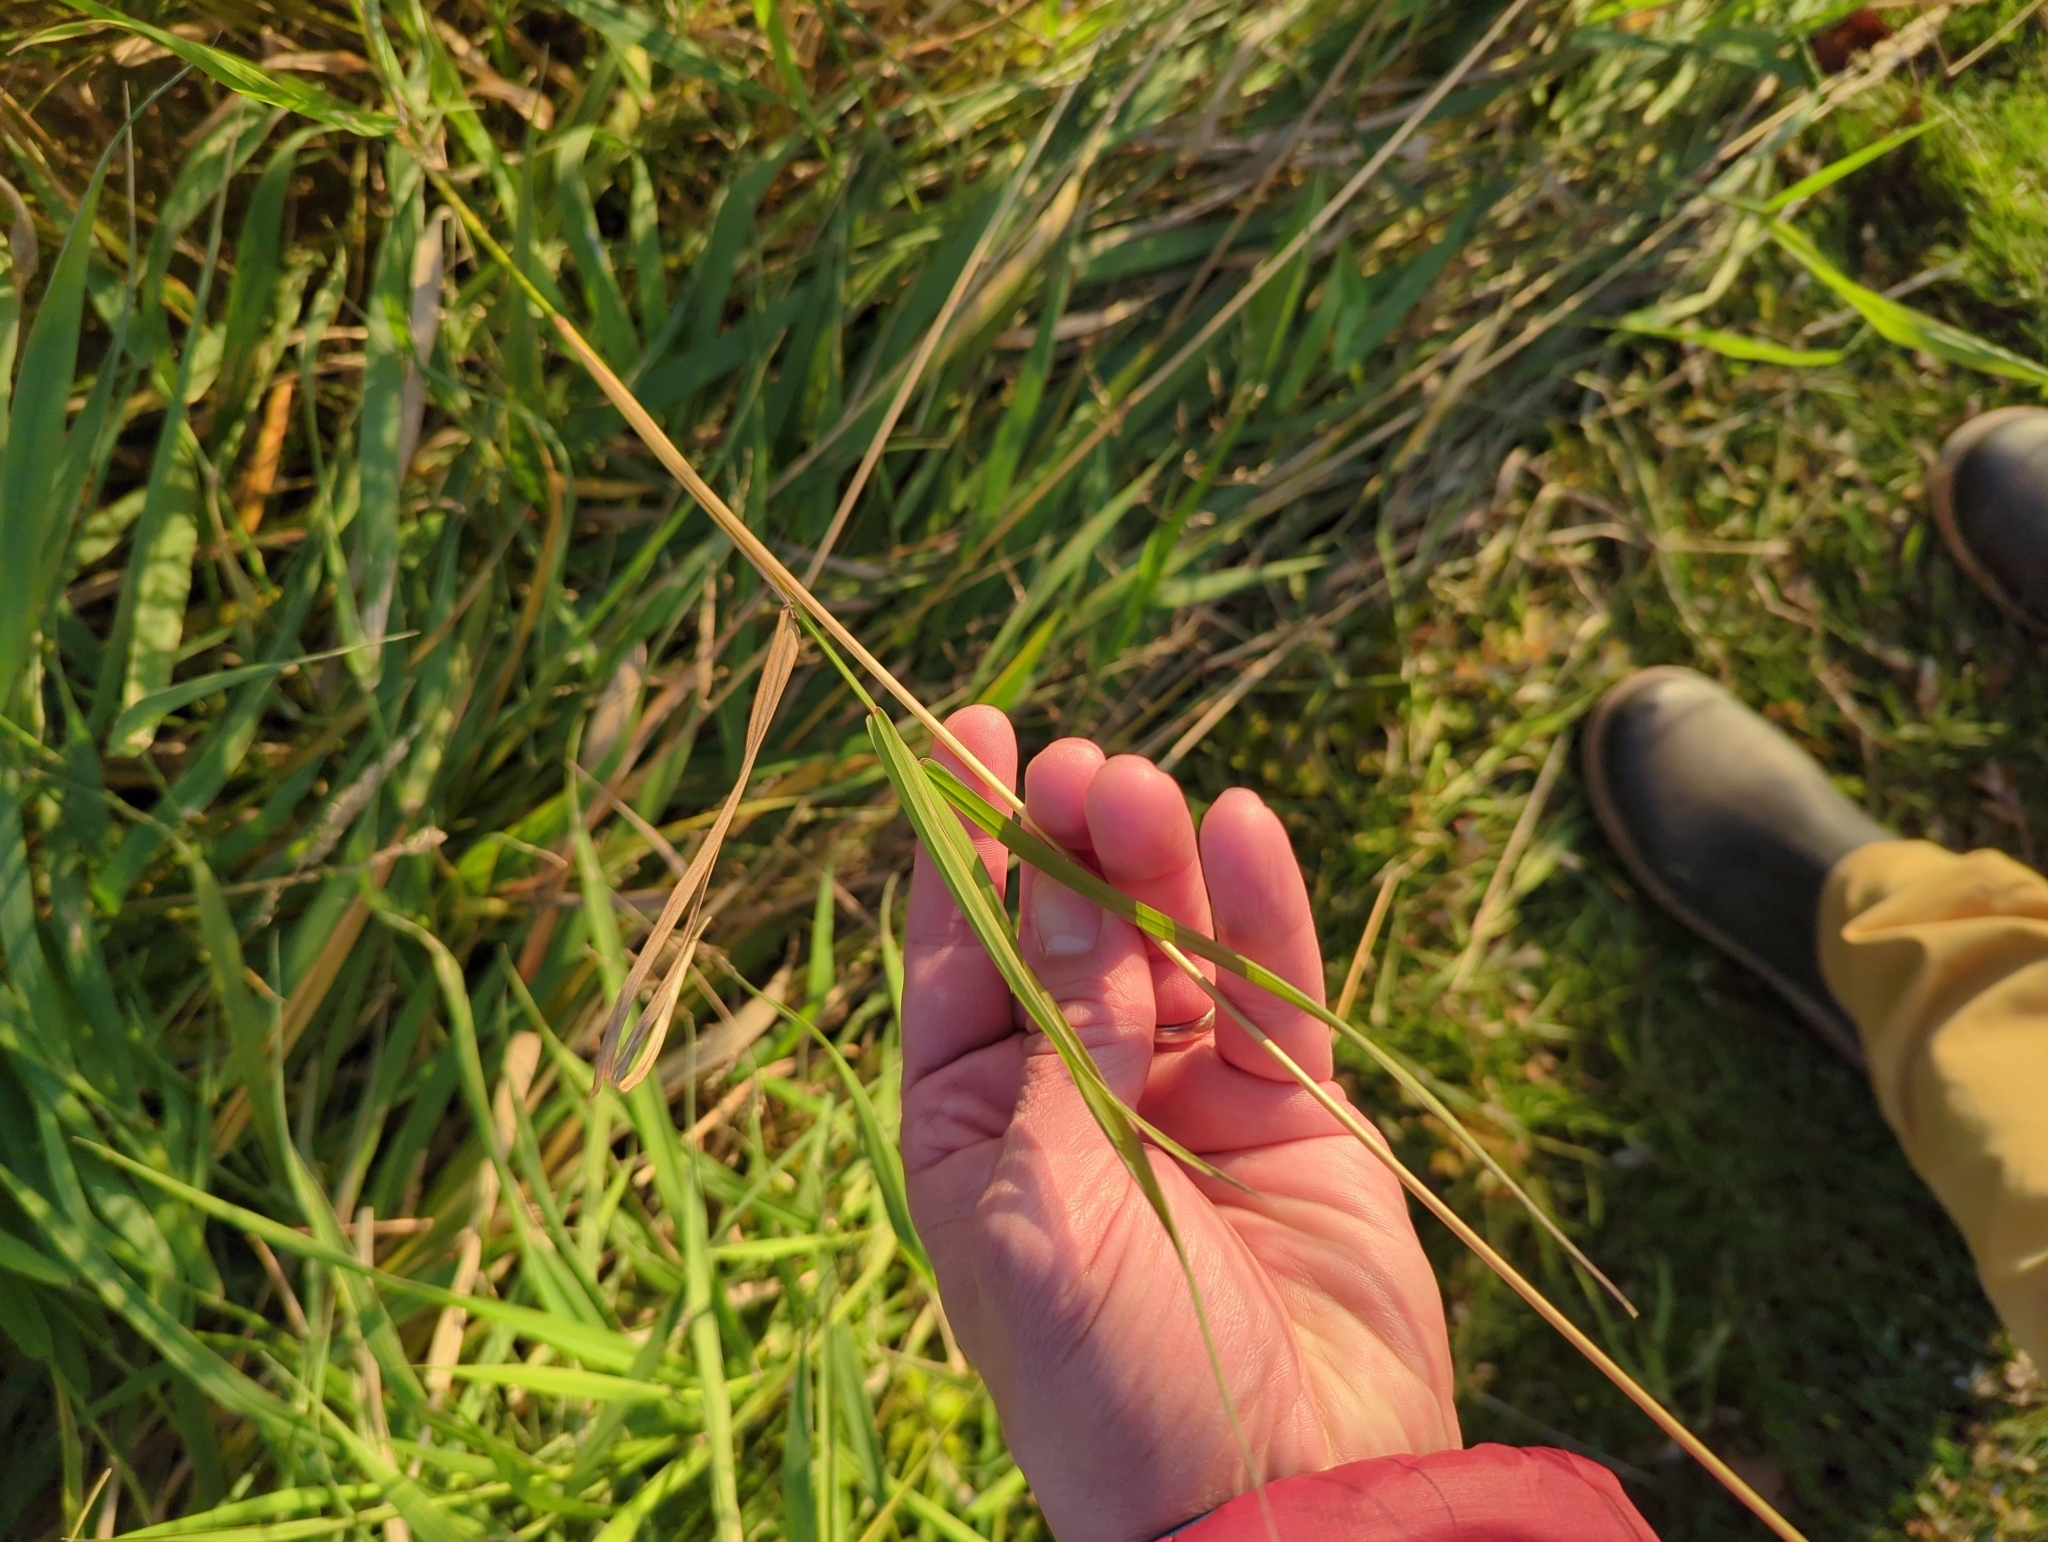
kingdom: Plantae
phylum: Tracheophyta
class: Liliopsida
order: Poales
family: Poaceae
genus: Phalaris
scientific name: Phalaris arundinacea
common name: Reed canary-grass
